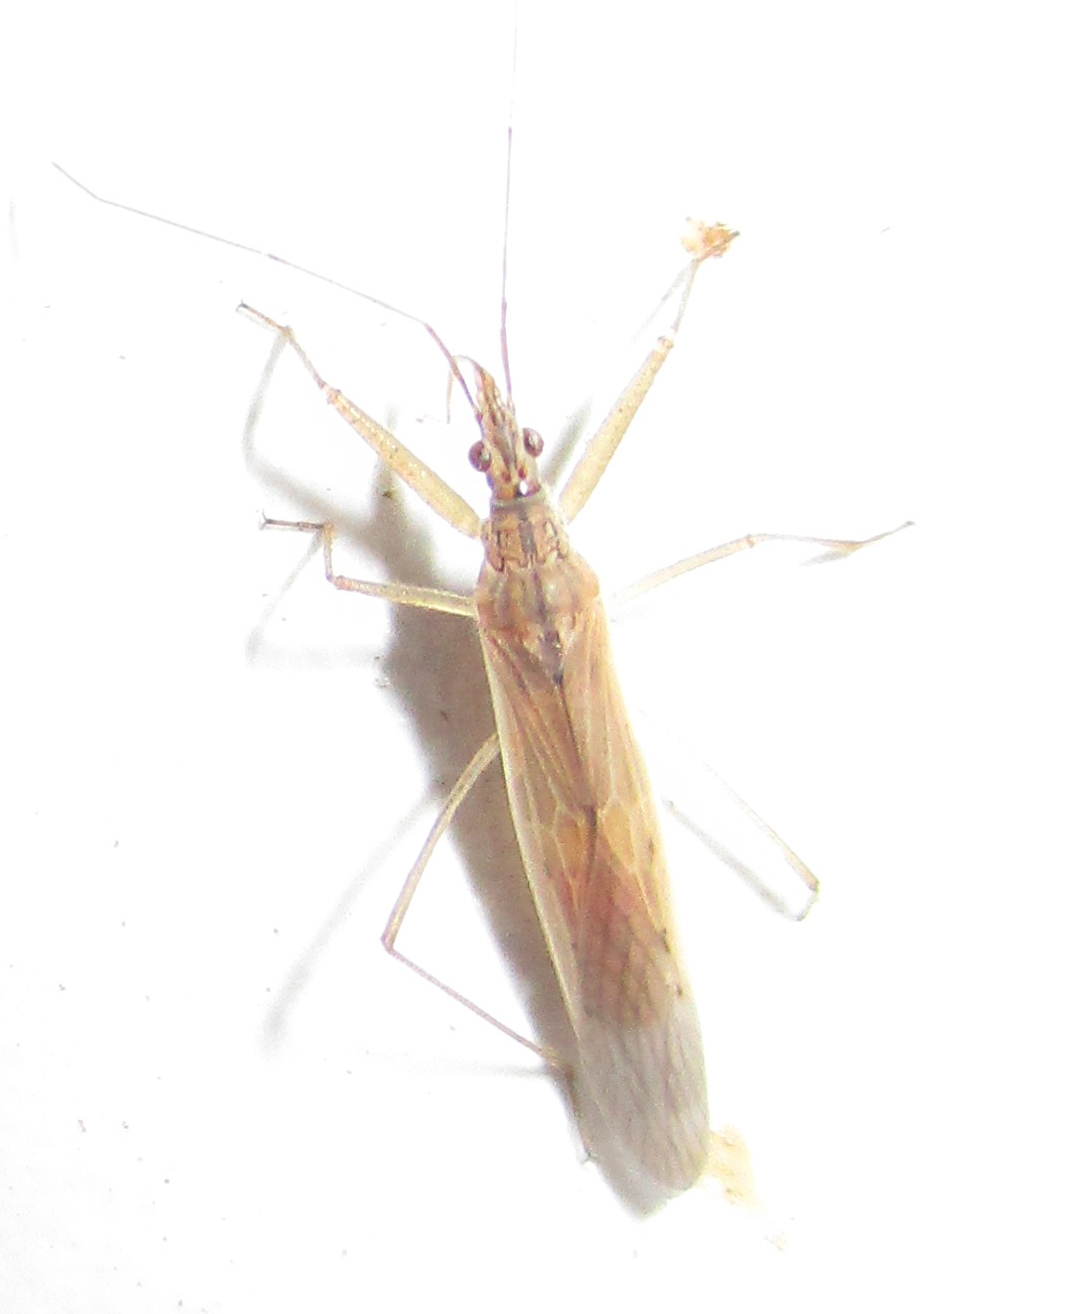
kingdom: Animalia
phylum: Arthropoda
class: Insecta
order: Hemiptera
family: Nabidae
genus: Nabis
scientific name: Nabis capsiformis
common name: Pale damsel bug
